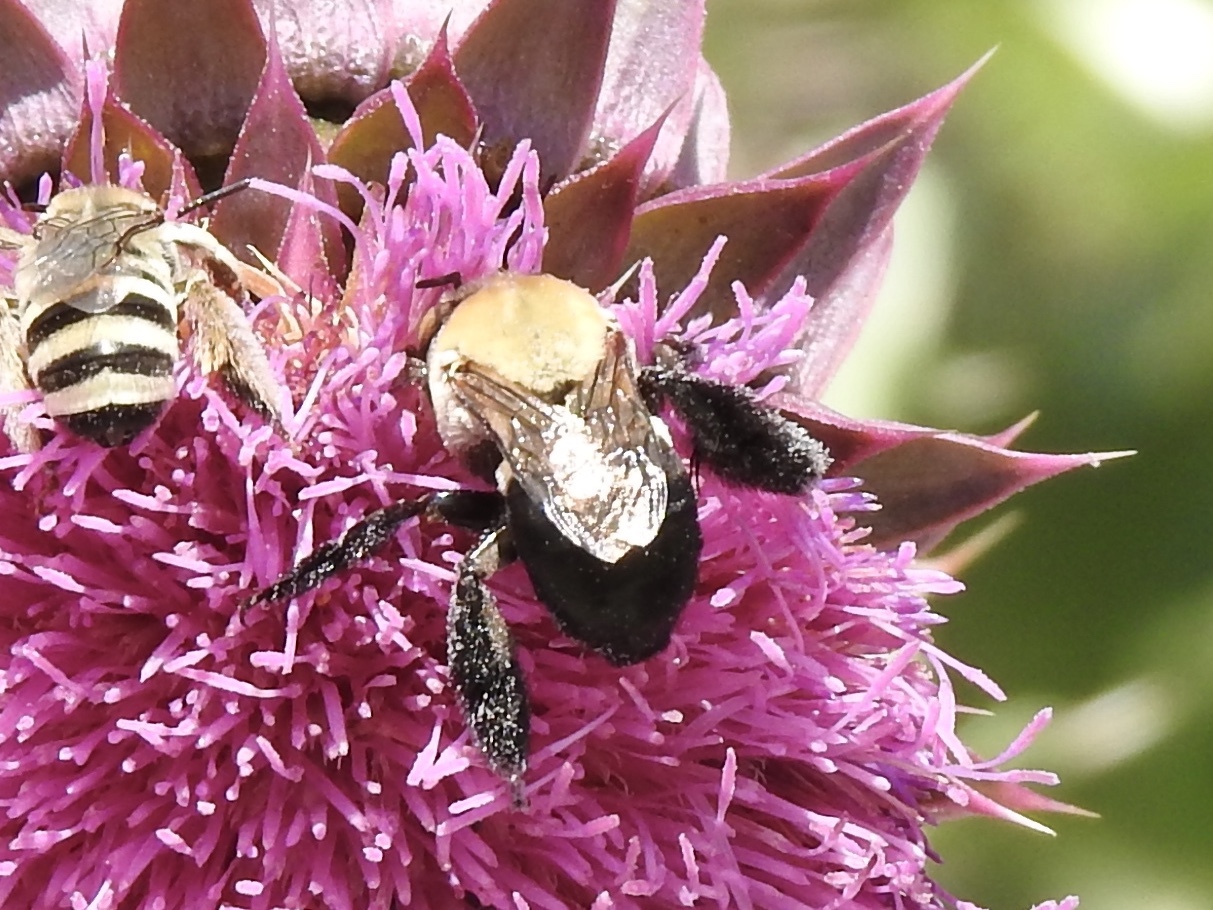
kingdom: Animalia
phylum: Arthropoda
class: Insecta
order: Hymenoptera
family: Apidae
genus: Centris
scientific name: Centris caesalpiniae
